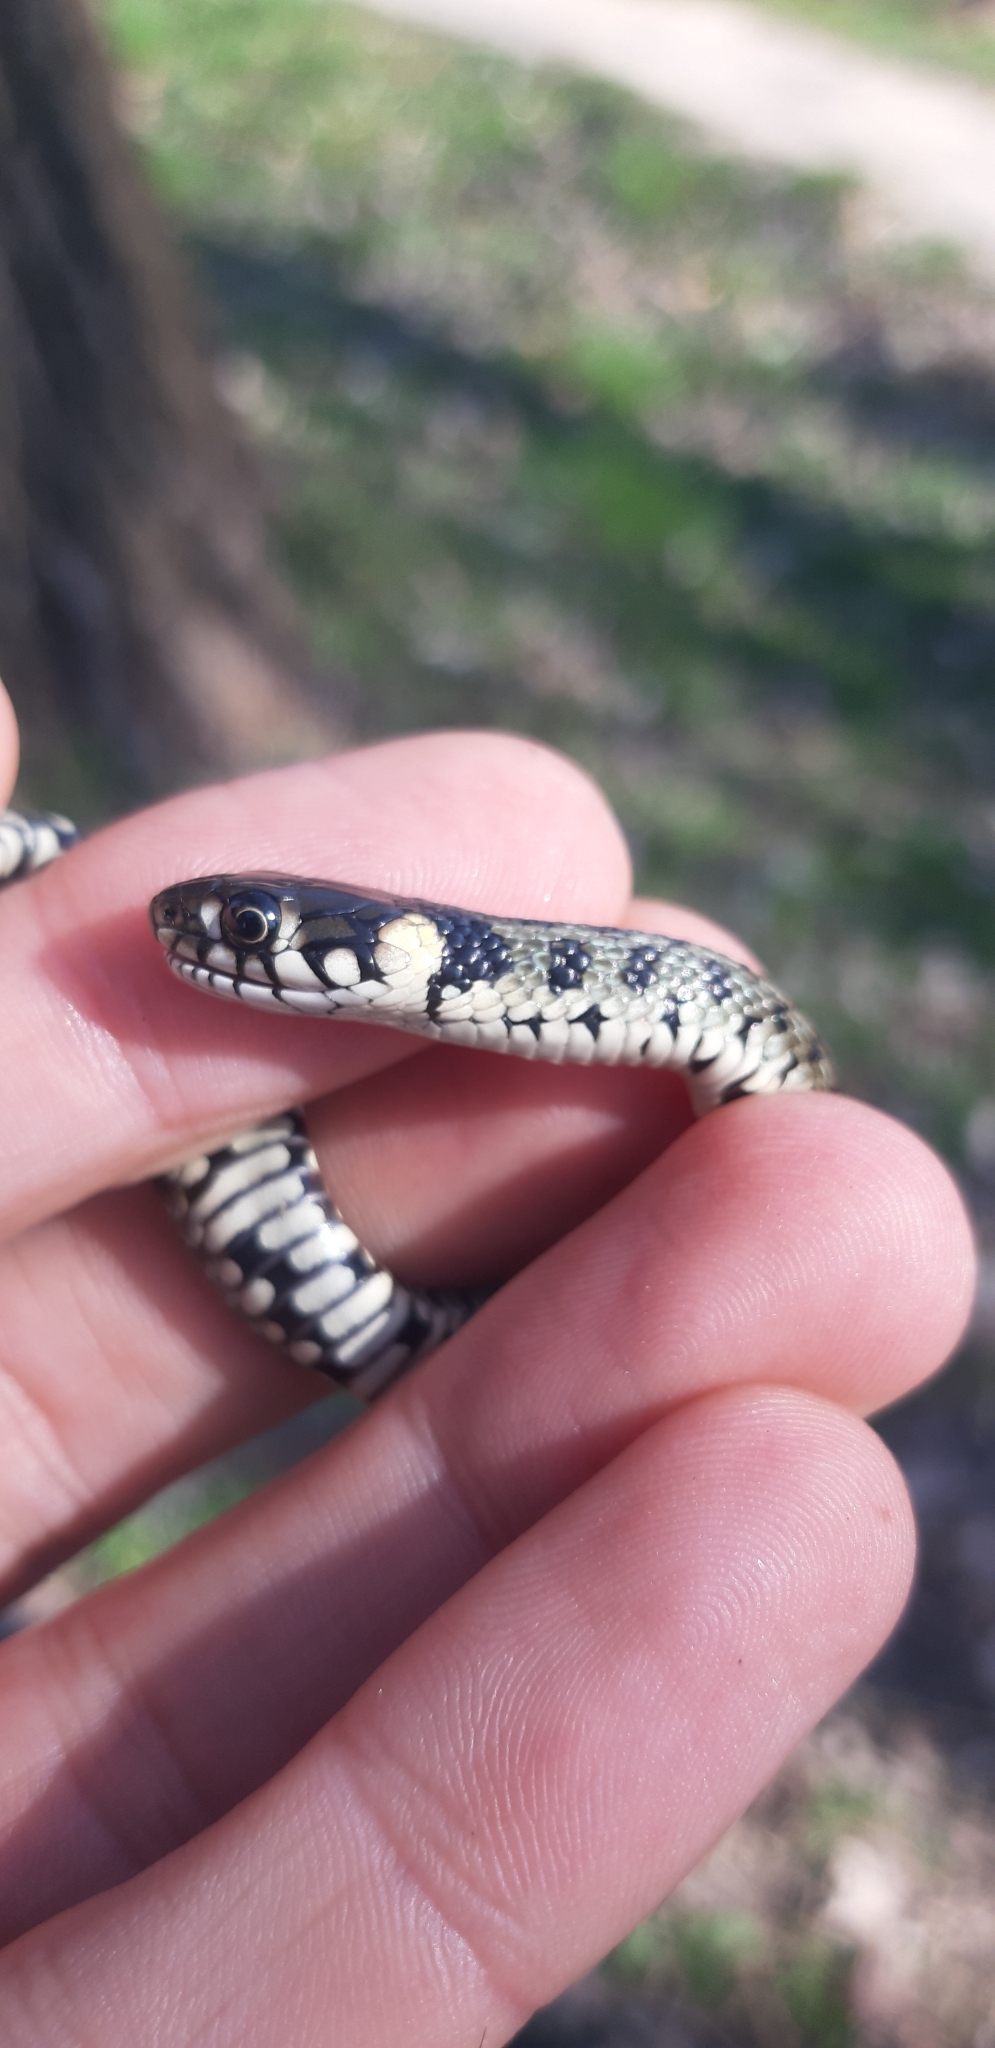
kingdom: Animalia
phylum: Chordata
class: Squamata
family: Colubridae
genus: Natrix
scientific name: Natrix natrix
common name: Grass snake
